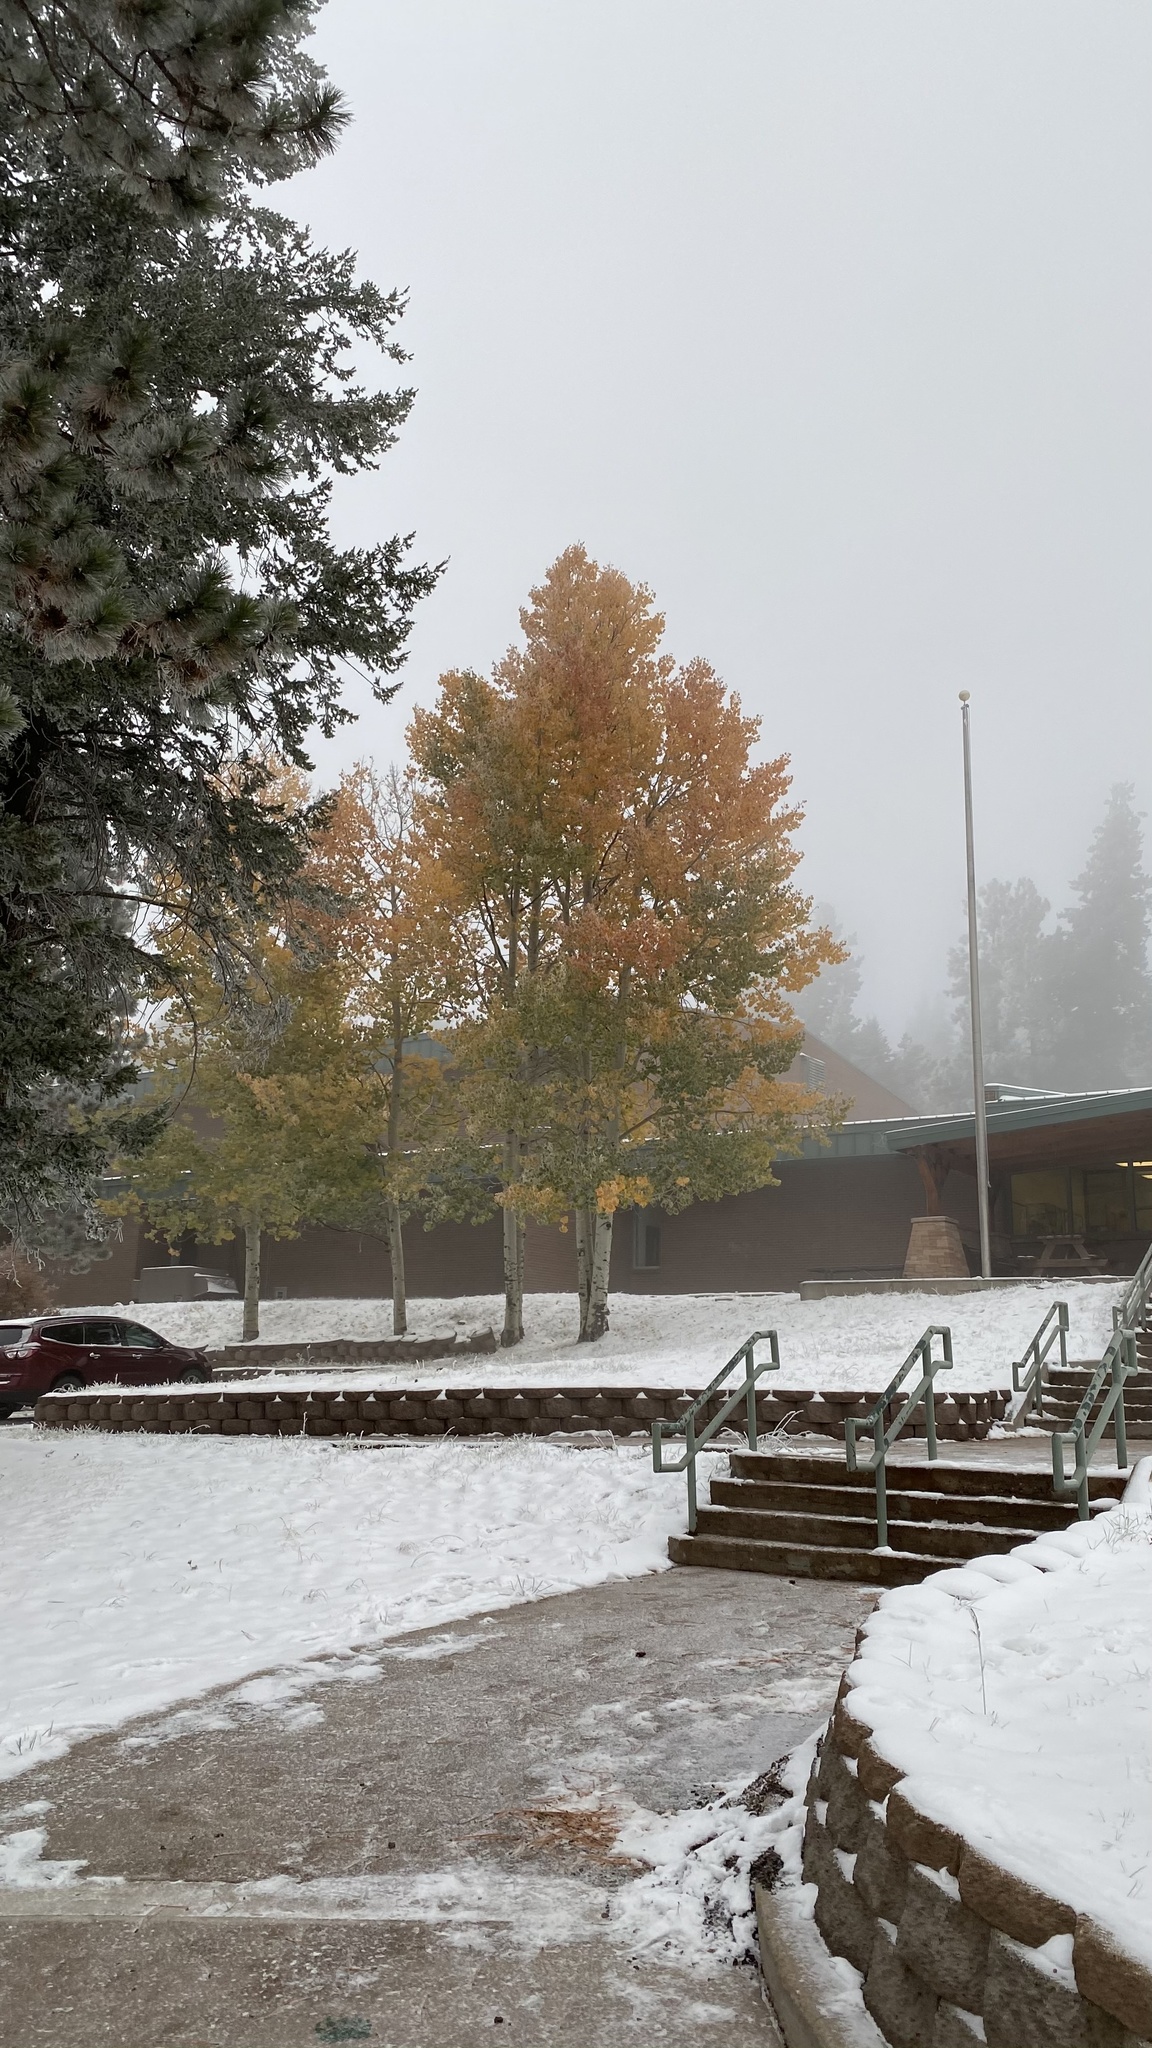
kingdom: Plantae
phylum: Tracheophyta
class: Magnoliopsida
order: Malpighiales
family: Salicaceae
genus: Populus
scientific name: Populus tremuloides
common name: Quaking aspen
